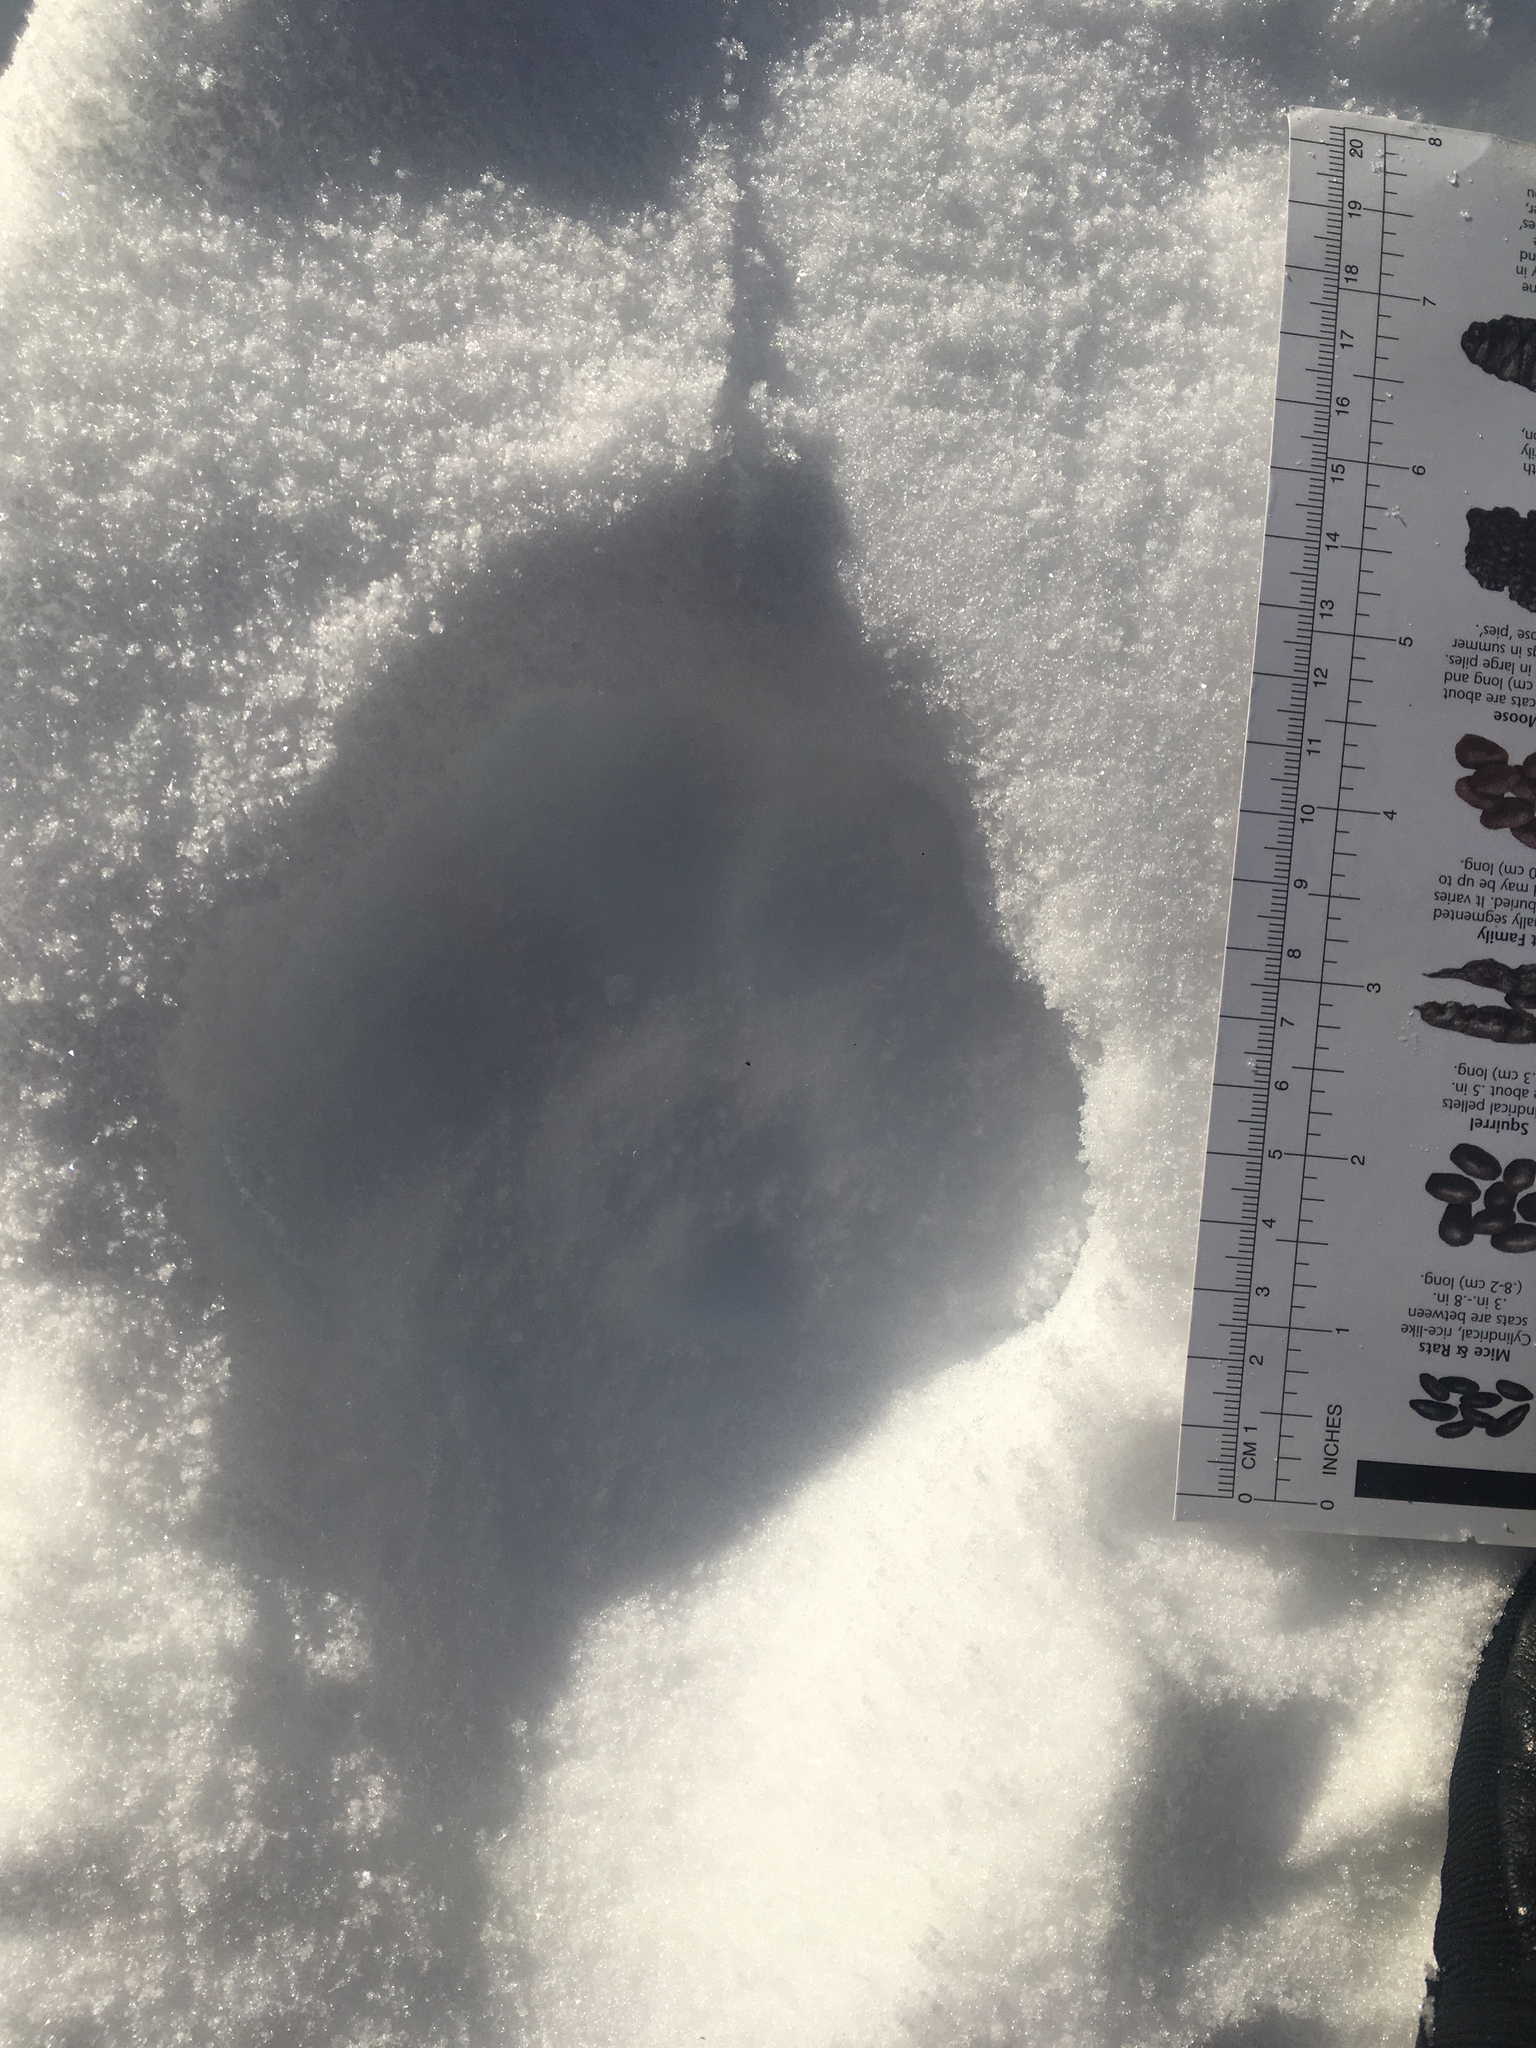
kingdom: Animalia
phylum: Chordata
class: Mammalia
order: Carnivora
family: Felidae
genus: Lynx
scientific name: Lynx canadensis
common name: Canadian lynx
